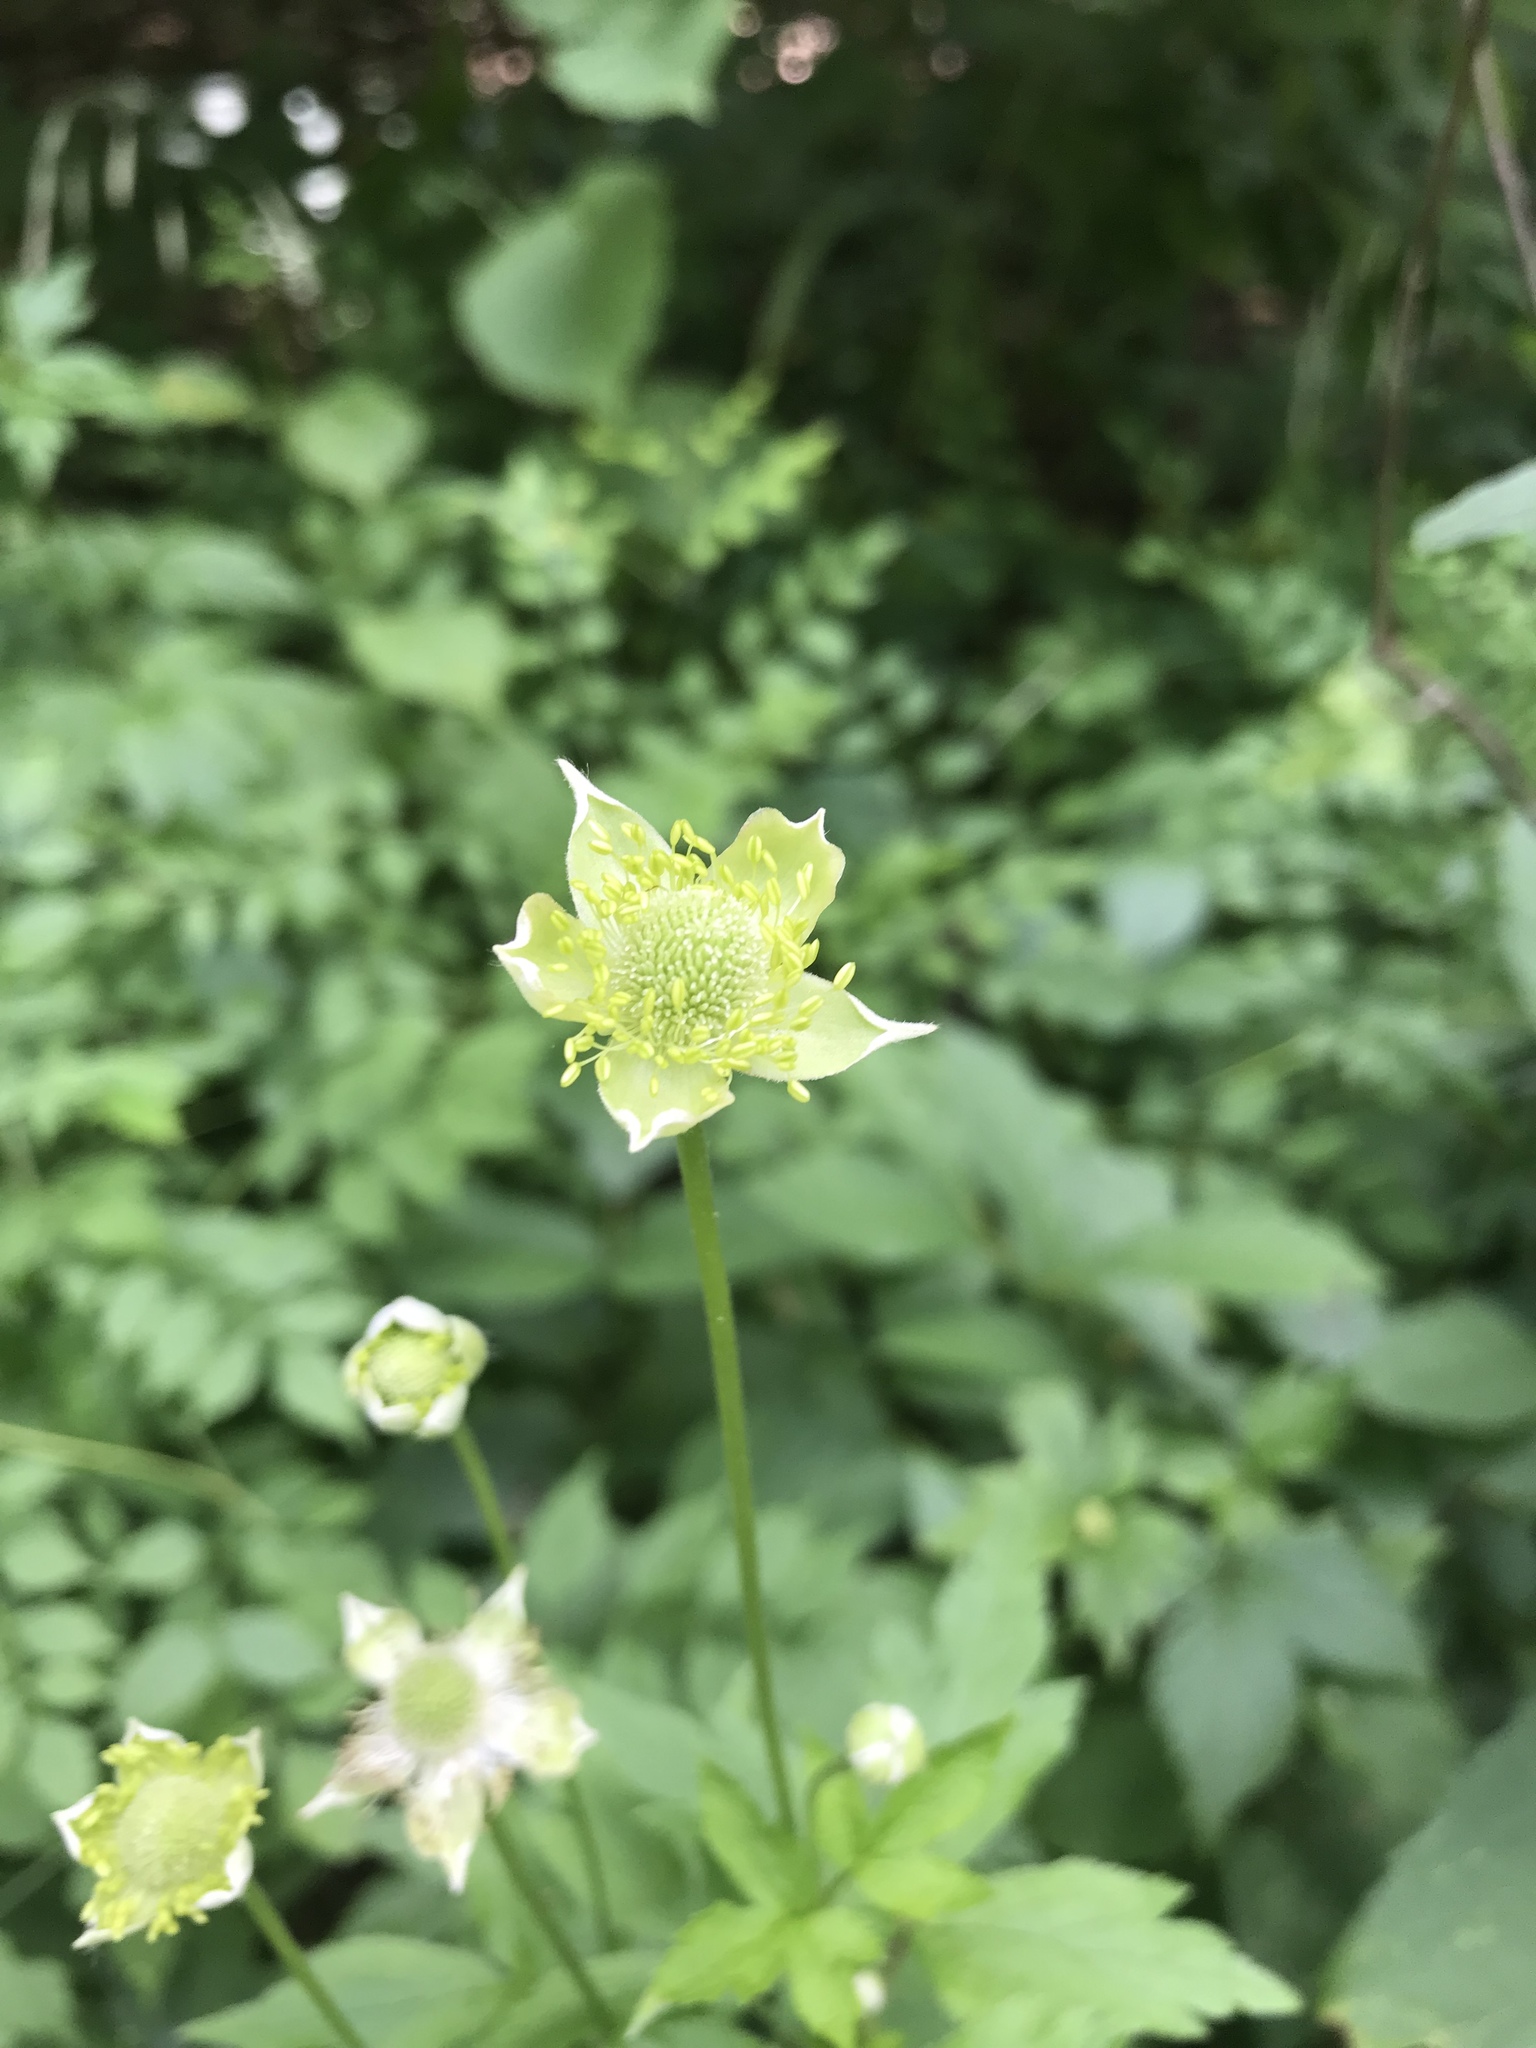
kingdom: Plantae
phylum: Tracheophyta
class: Magnoliopsida
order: Ranunculales
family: Ranunculaceae
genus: Anemone
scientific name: Anemone virginiana
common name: Tall anemone
